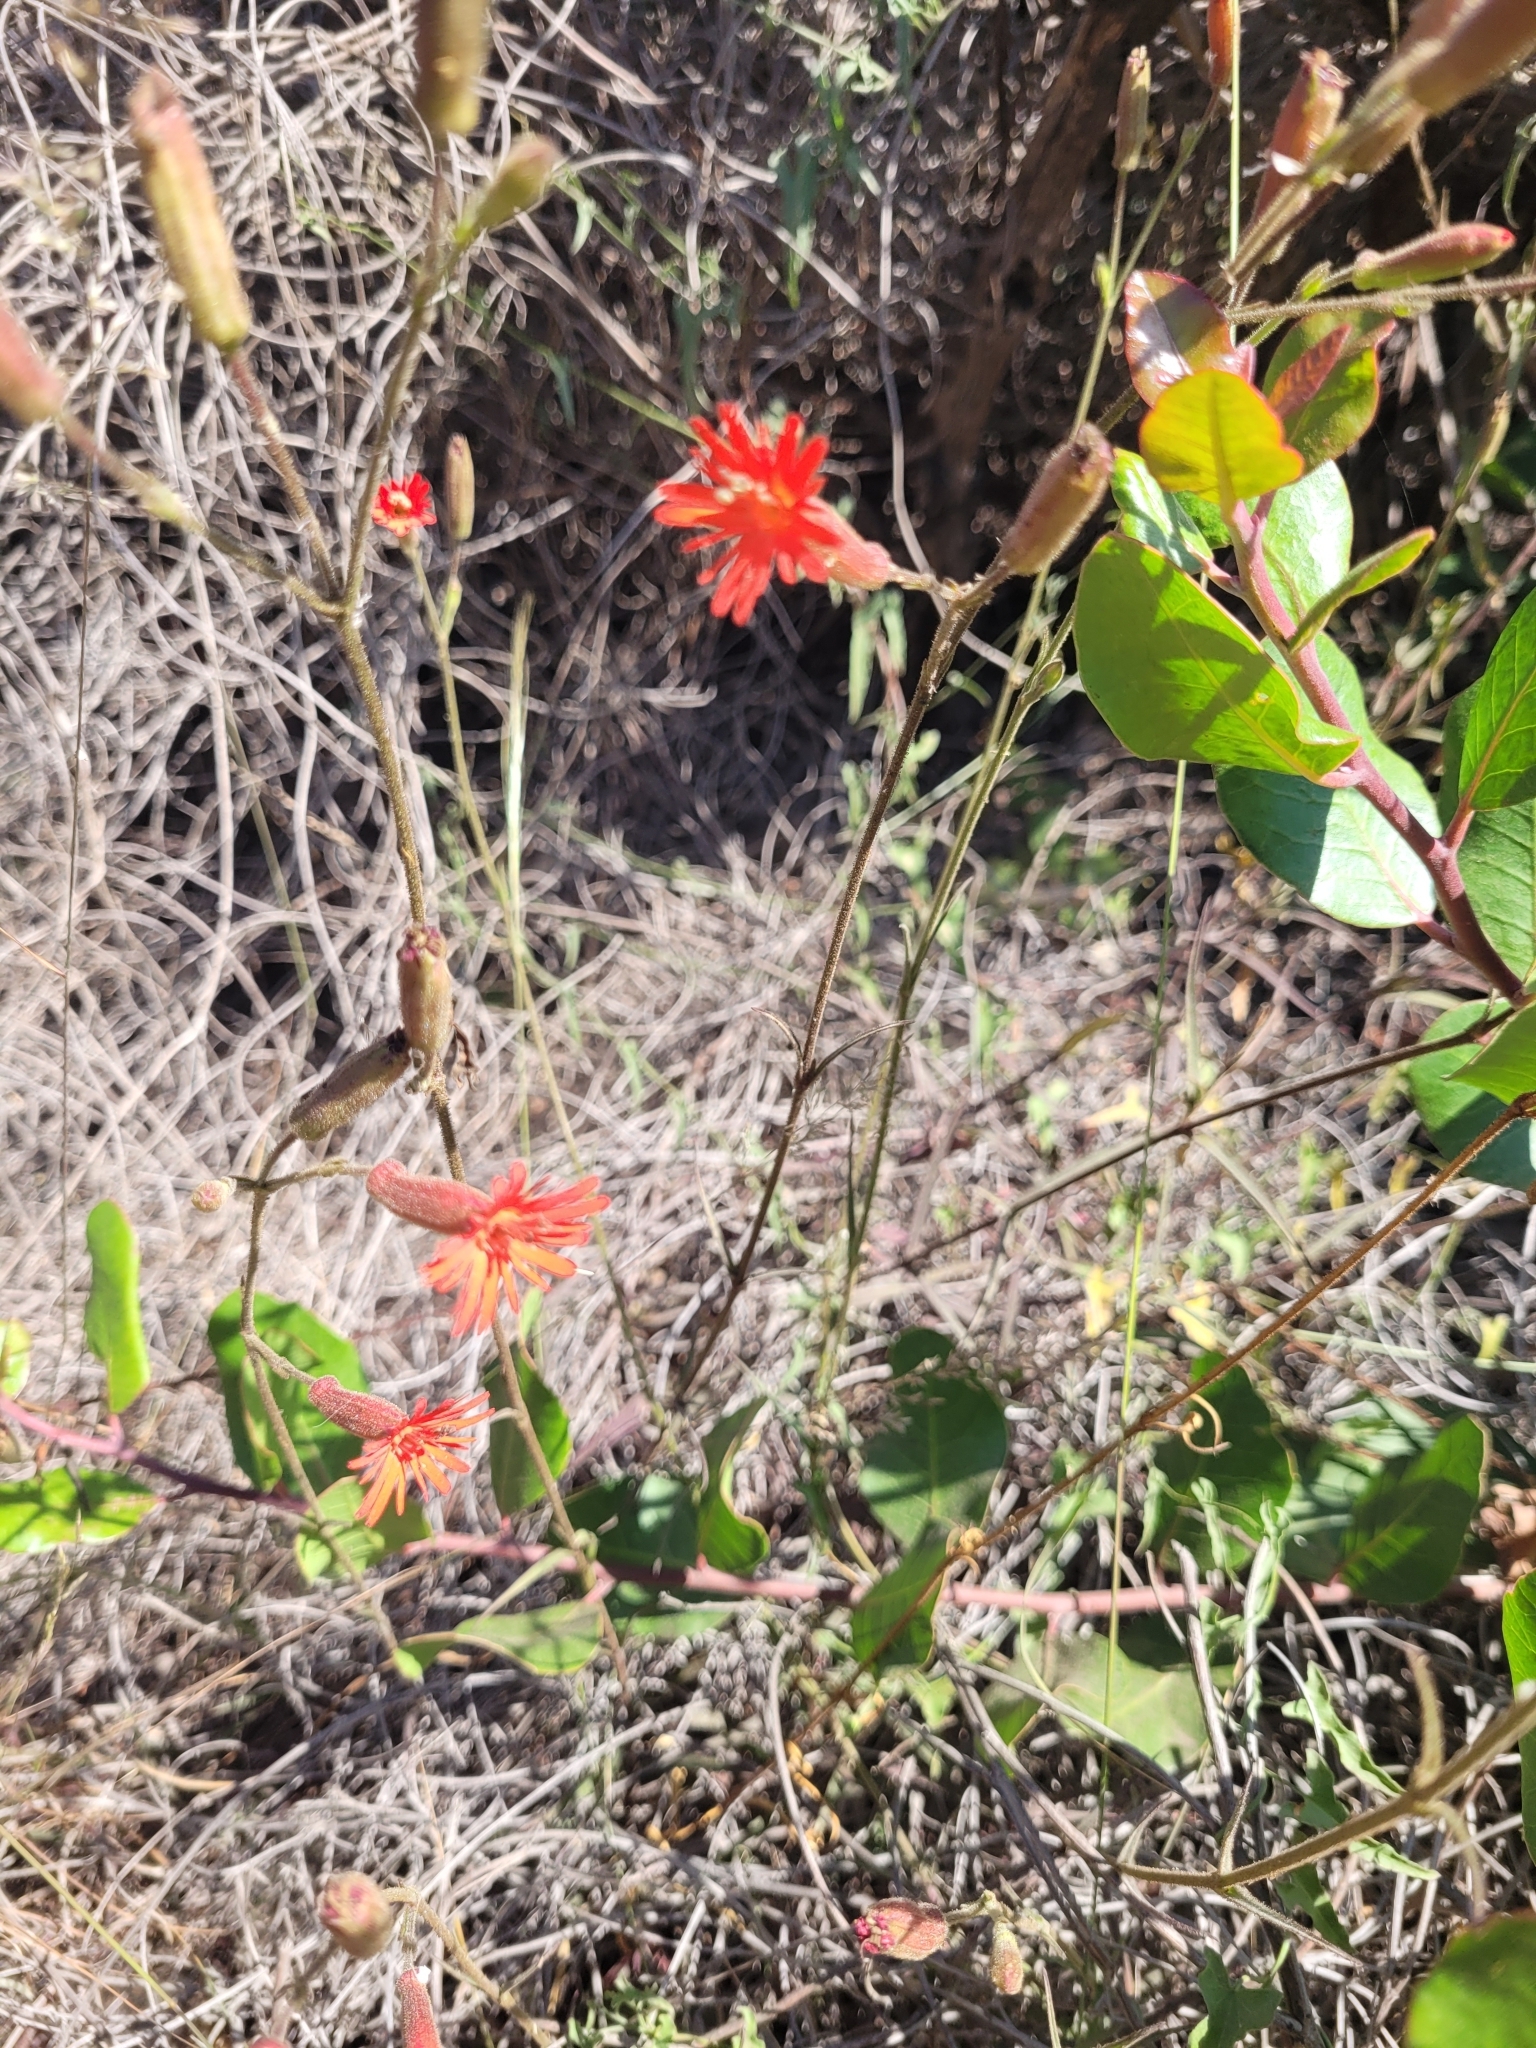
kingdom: Plantae
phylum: Tracheophyta
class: Magnoliopsida
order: Caryophyllales
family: Caryophyllaceae
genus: Silene
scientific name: Silene laciniata
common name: Indian-pink
